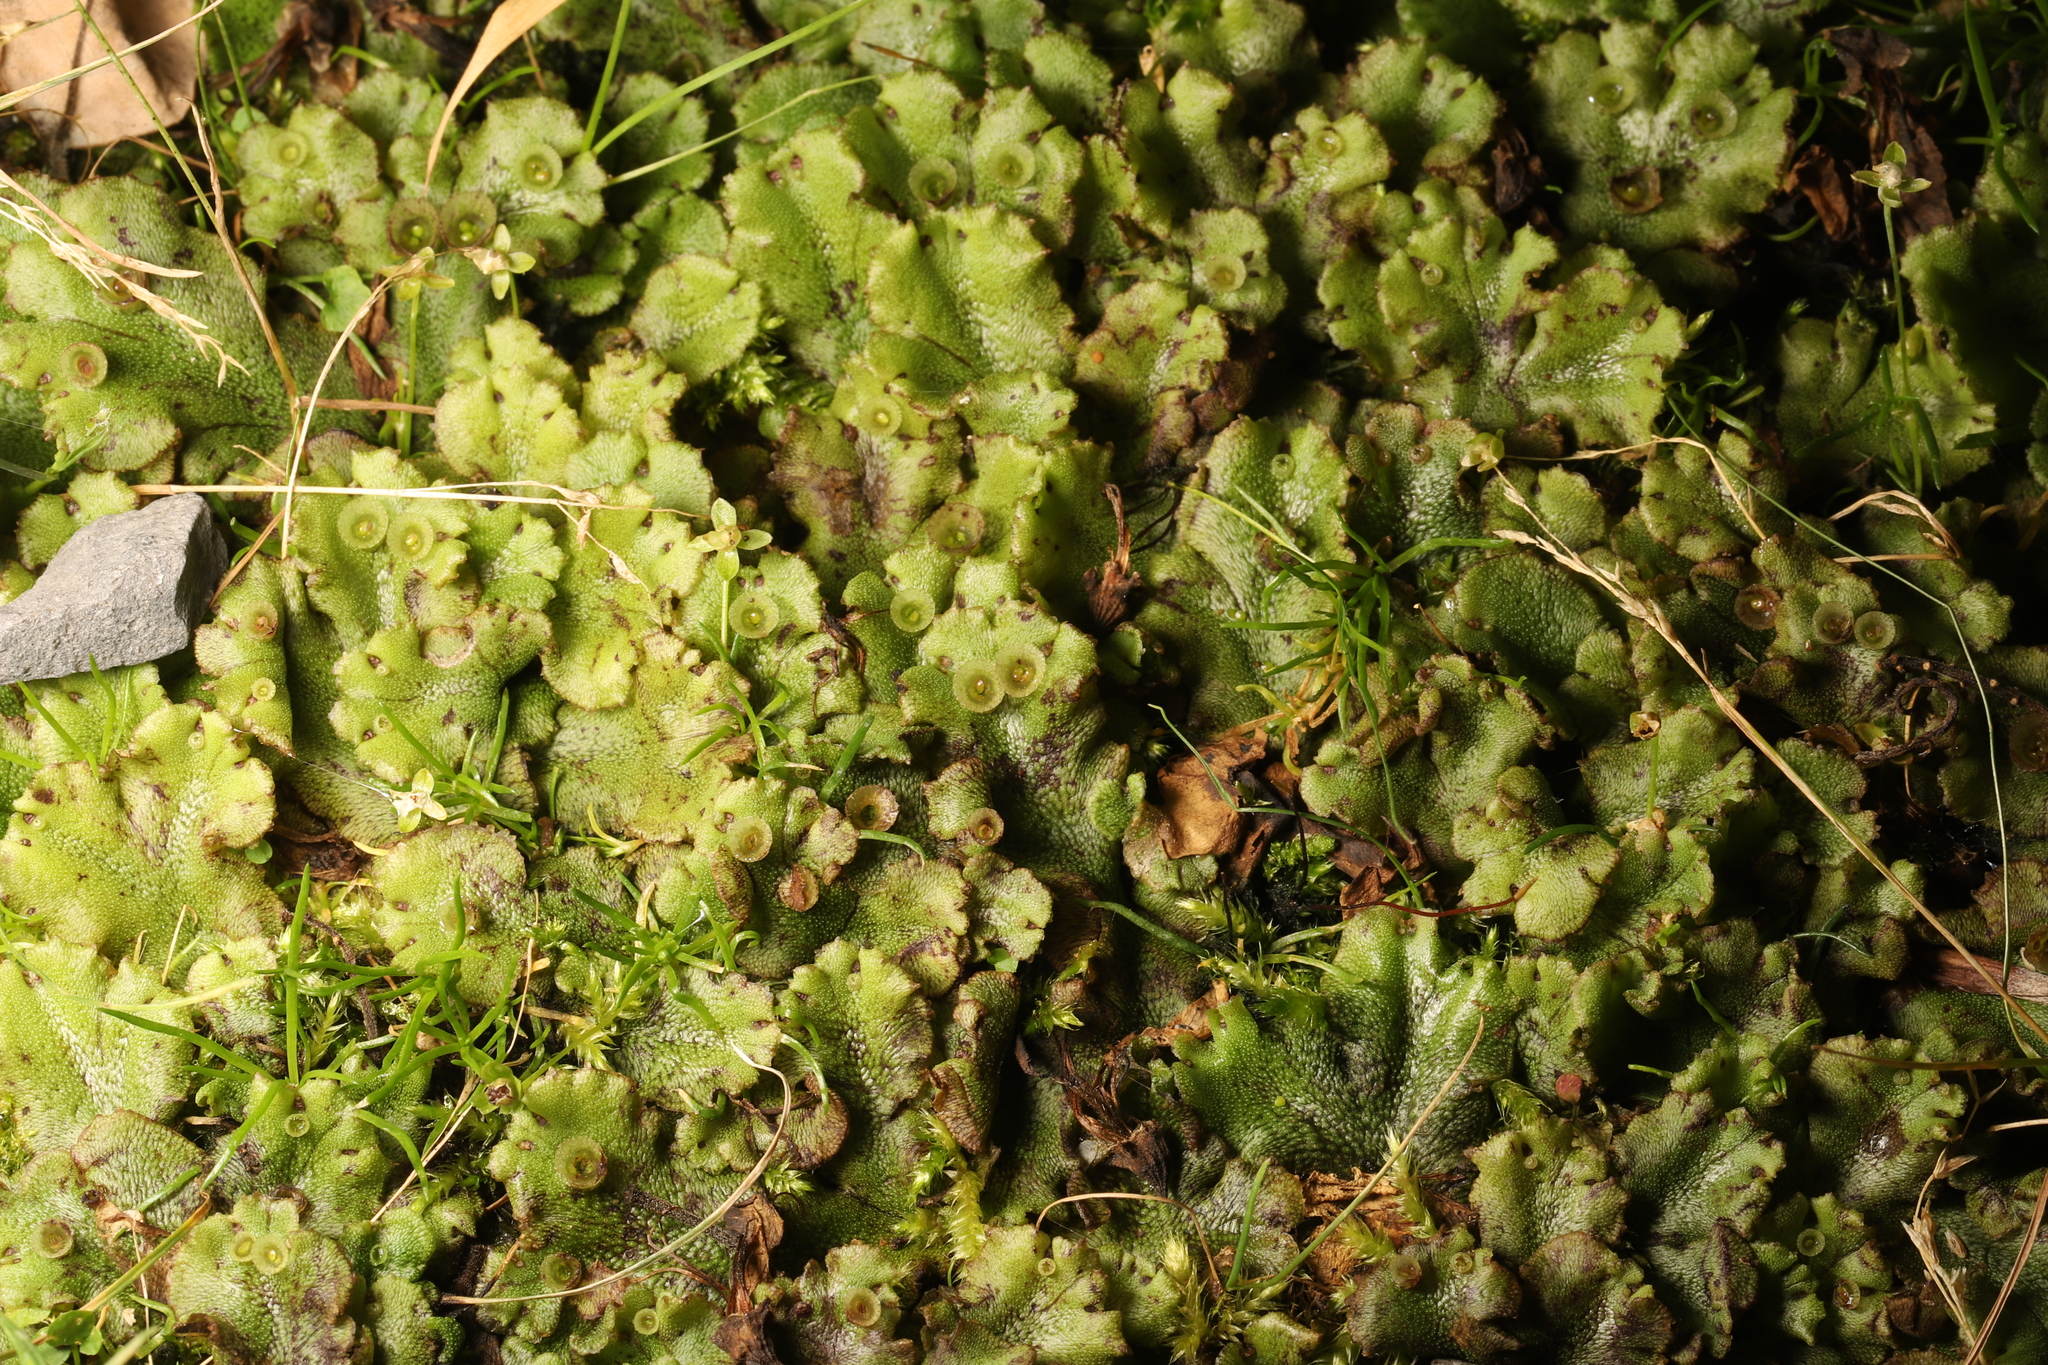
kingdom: Plantae
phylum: Marchantiophyta
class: Marchantiopsida
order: Marchantiales
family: Marchantiaceae
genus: Marchantia
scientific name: Marchantia polymorpha
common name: Common liverwort
